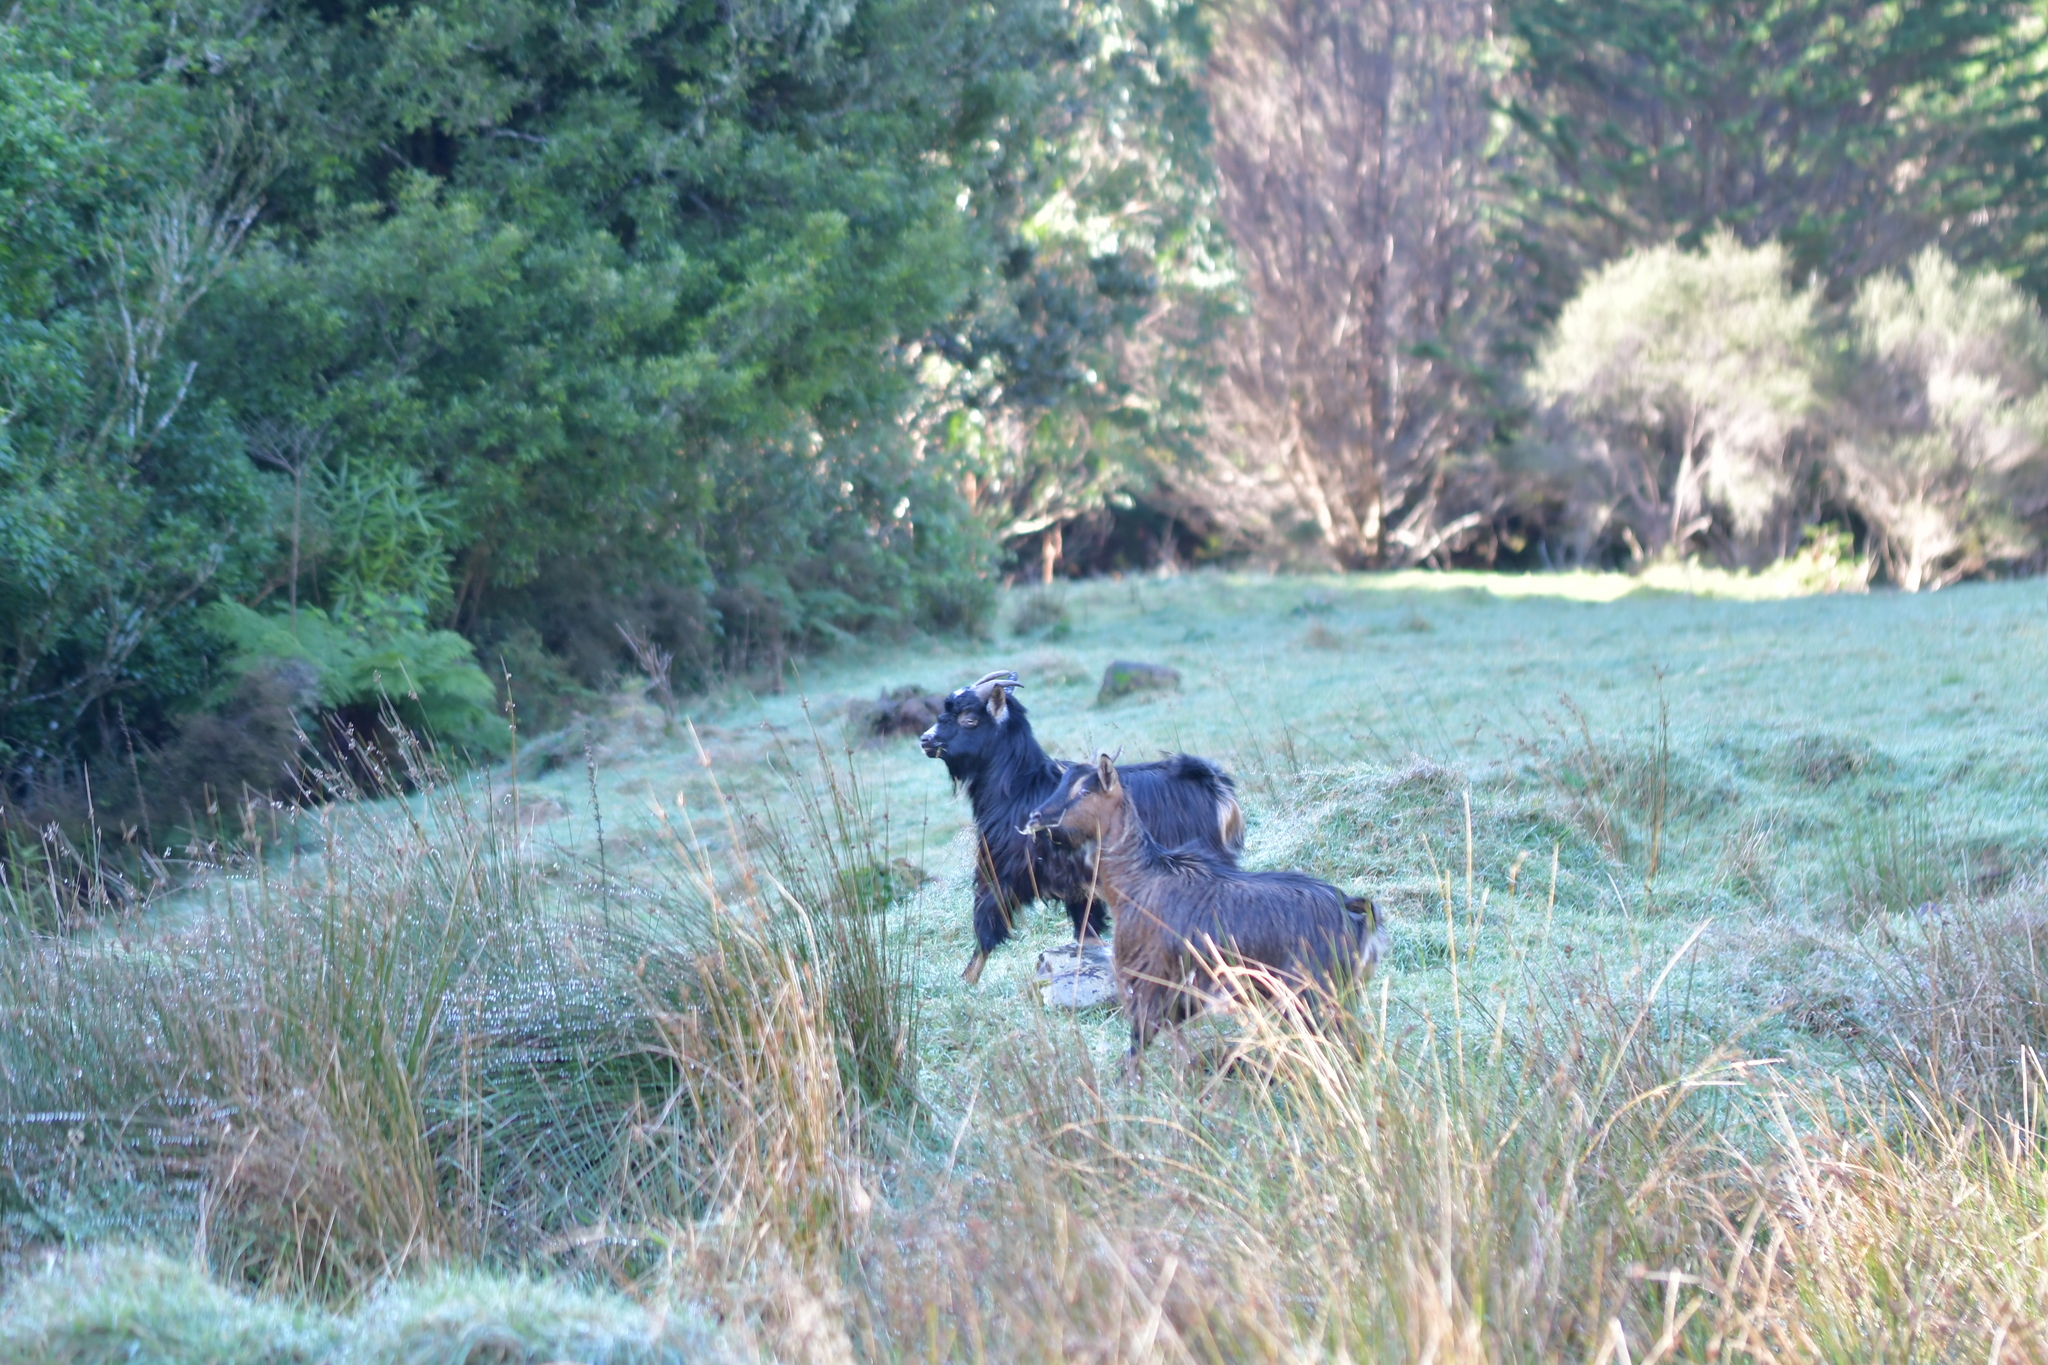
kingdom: Animalia
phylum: Chordata
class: Mammalia
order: Artiodactyla
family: Bovidae
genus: Capra
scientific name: Capra hircus
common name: Domestic goat
